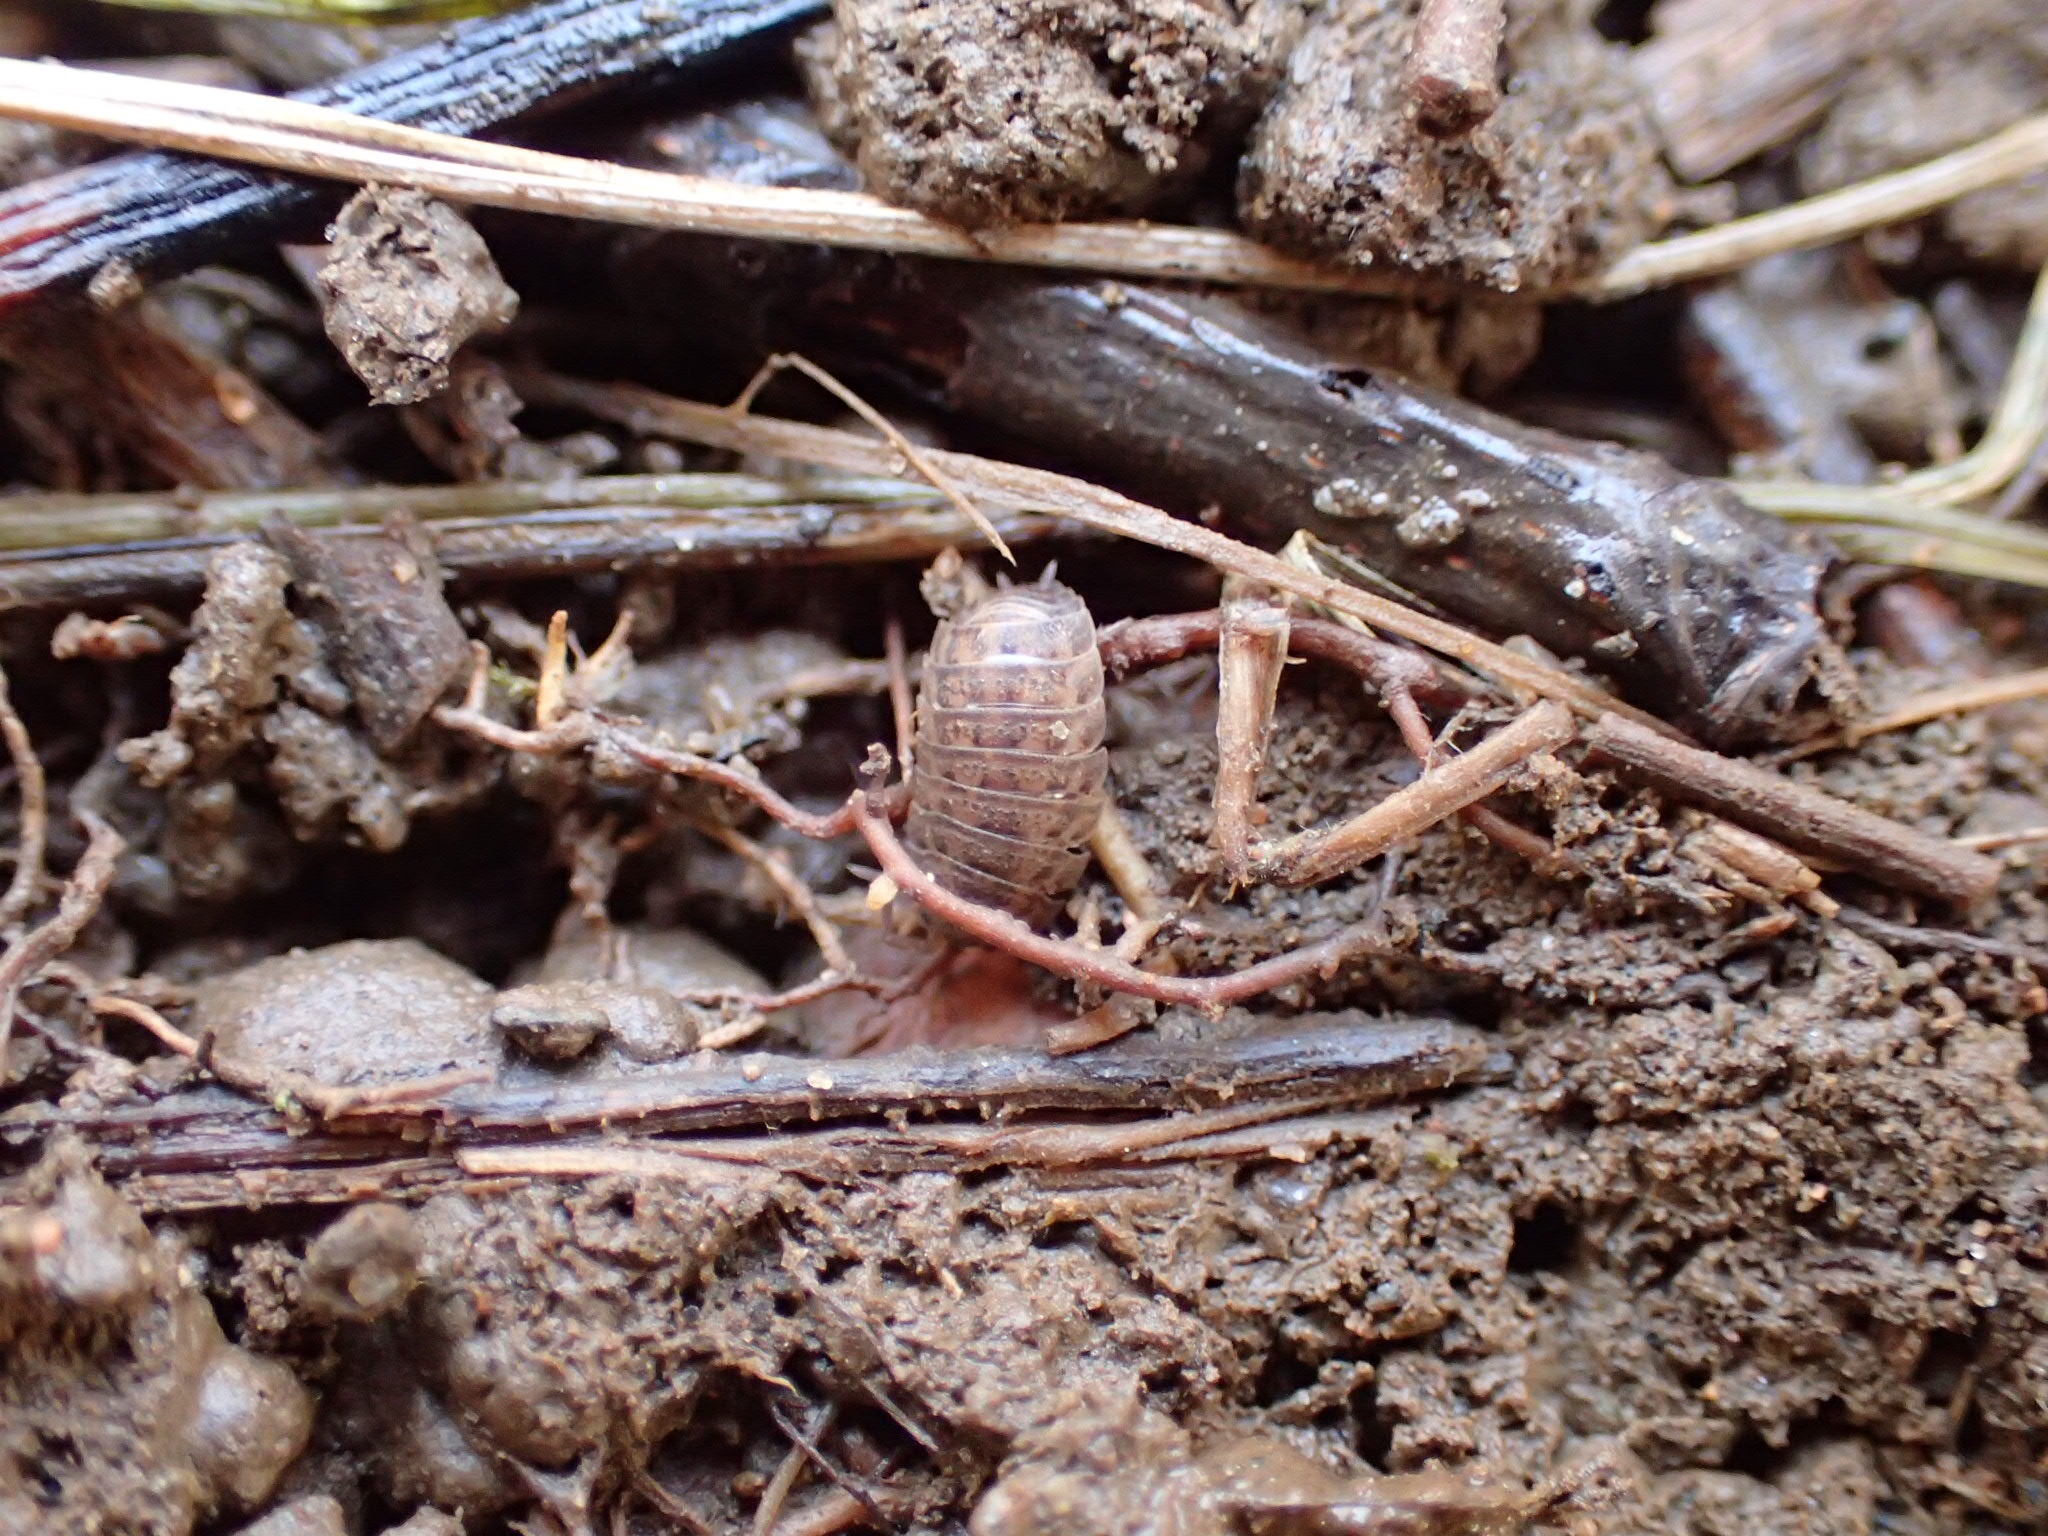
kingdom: Animalia
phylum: Arthropoda
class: Malacostraca
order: Isopoda
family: Trachelipodidae
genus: Trachelipus
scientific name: Trachelipus rathkii
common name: Isopod
